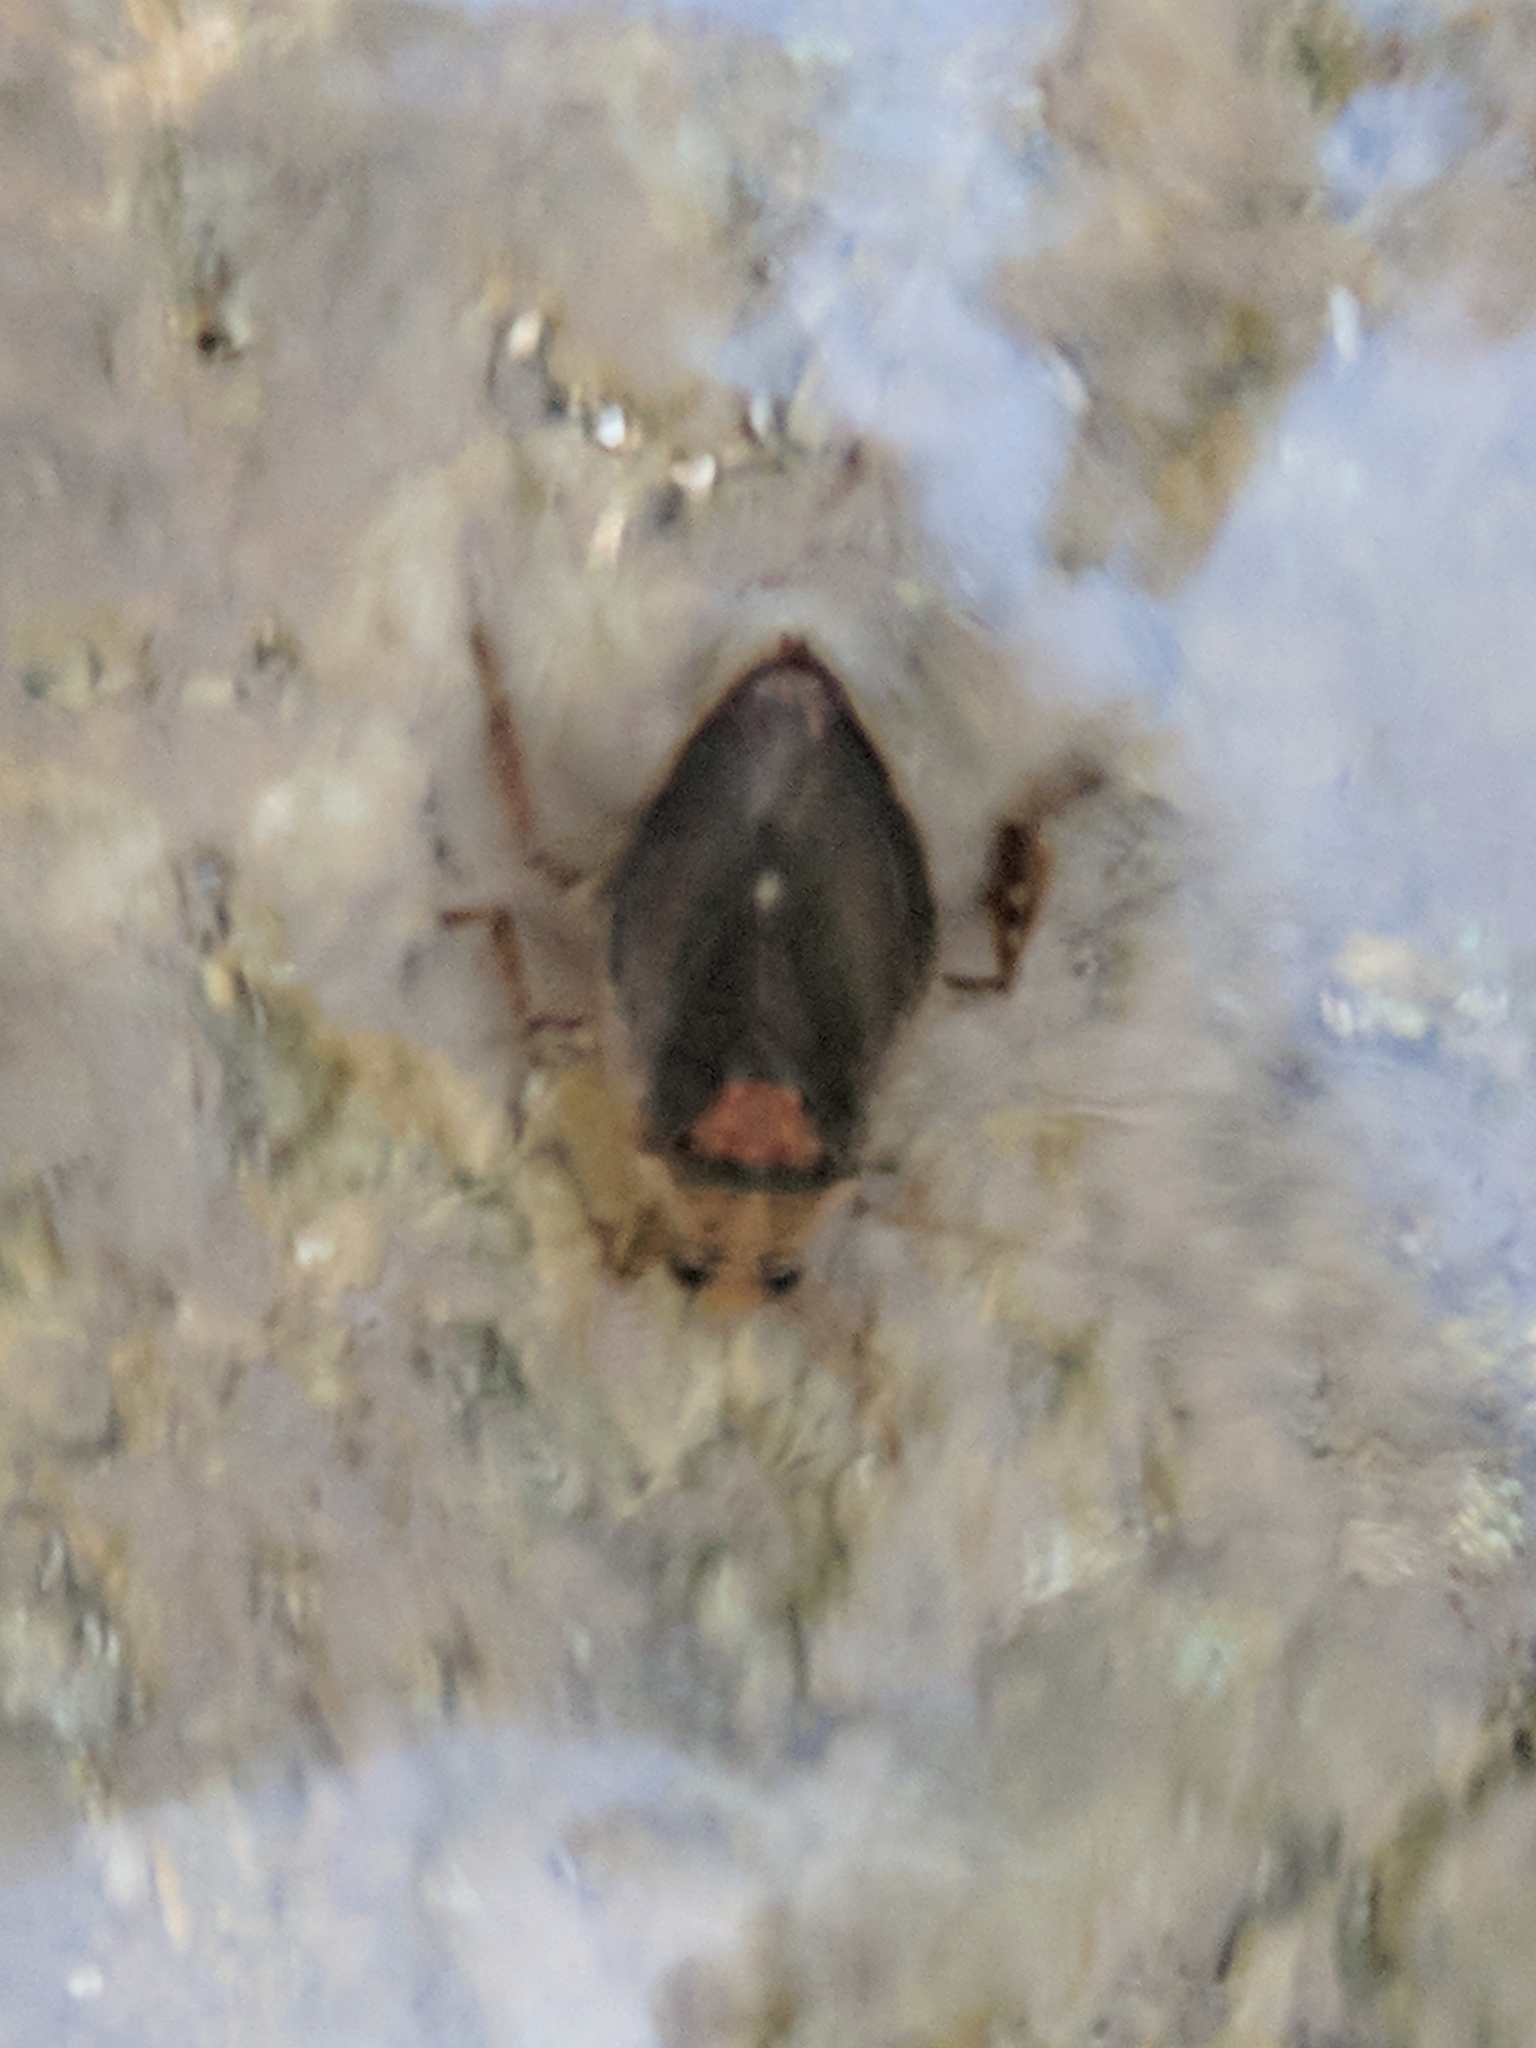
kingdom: Animalia
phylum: Arthropoda
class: Insecta
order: Hemiptera
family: Belostomatidae
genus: Belostoma
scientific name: Belostoma
